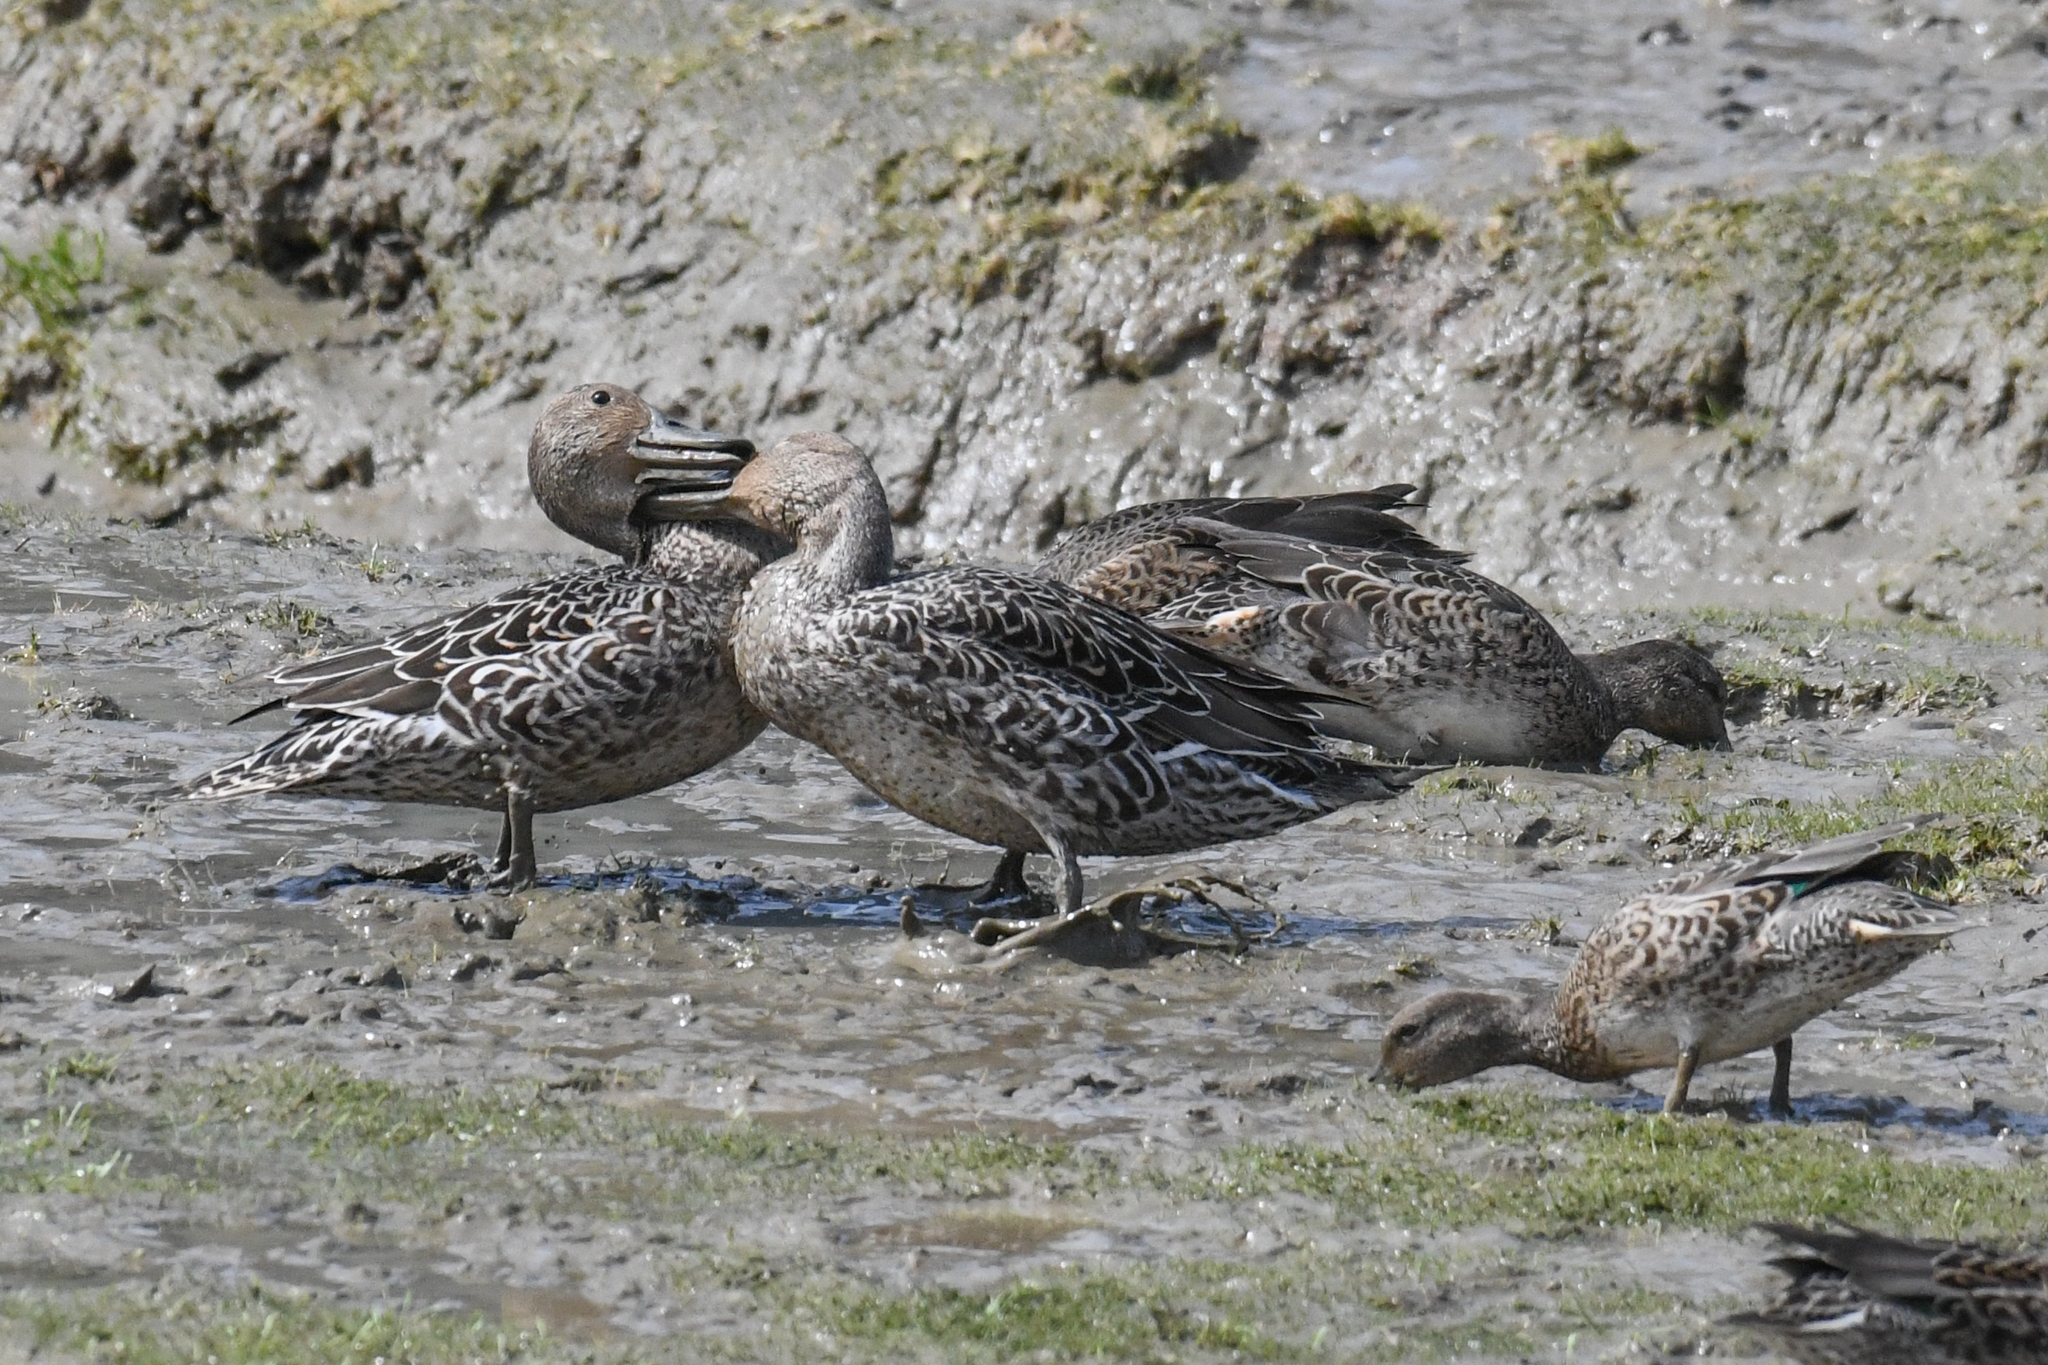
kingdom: Animalia
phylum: Chordata
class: Aves
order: Anseriformes
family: Anatidae
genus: Anas
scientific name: Anas acuta
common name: Northern pintail
